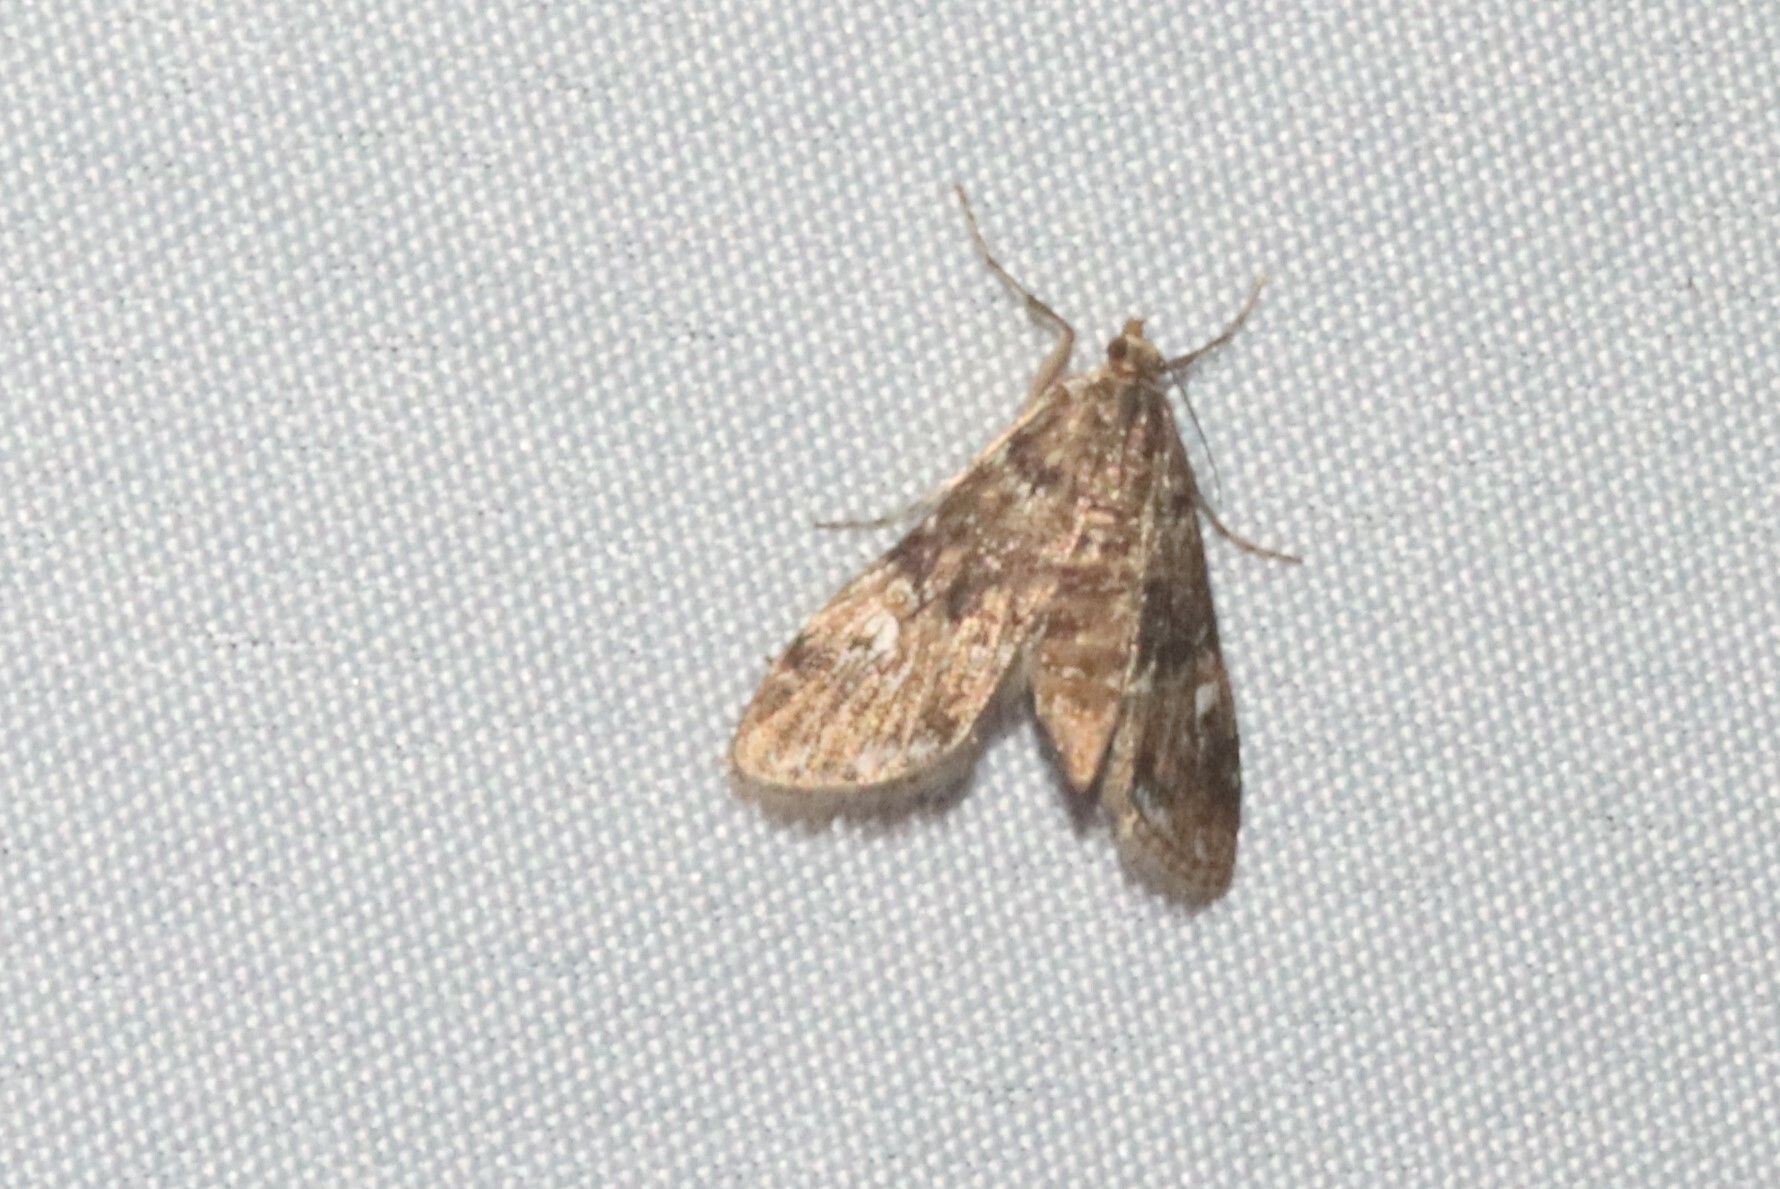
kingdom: Animalia
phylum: Arthropoda
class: Insecta
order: Lepidoptera
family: Crambidae
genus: Elophila
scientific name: Elophila obliteralis
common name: Waterlily leafcutter moth
